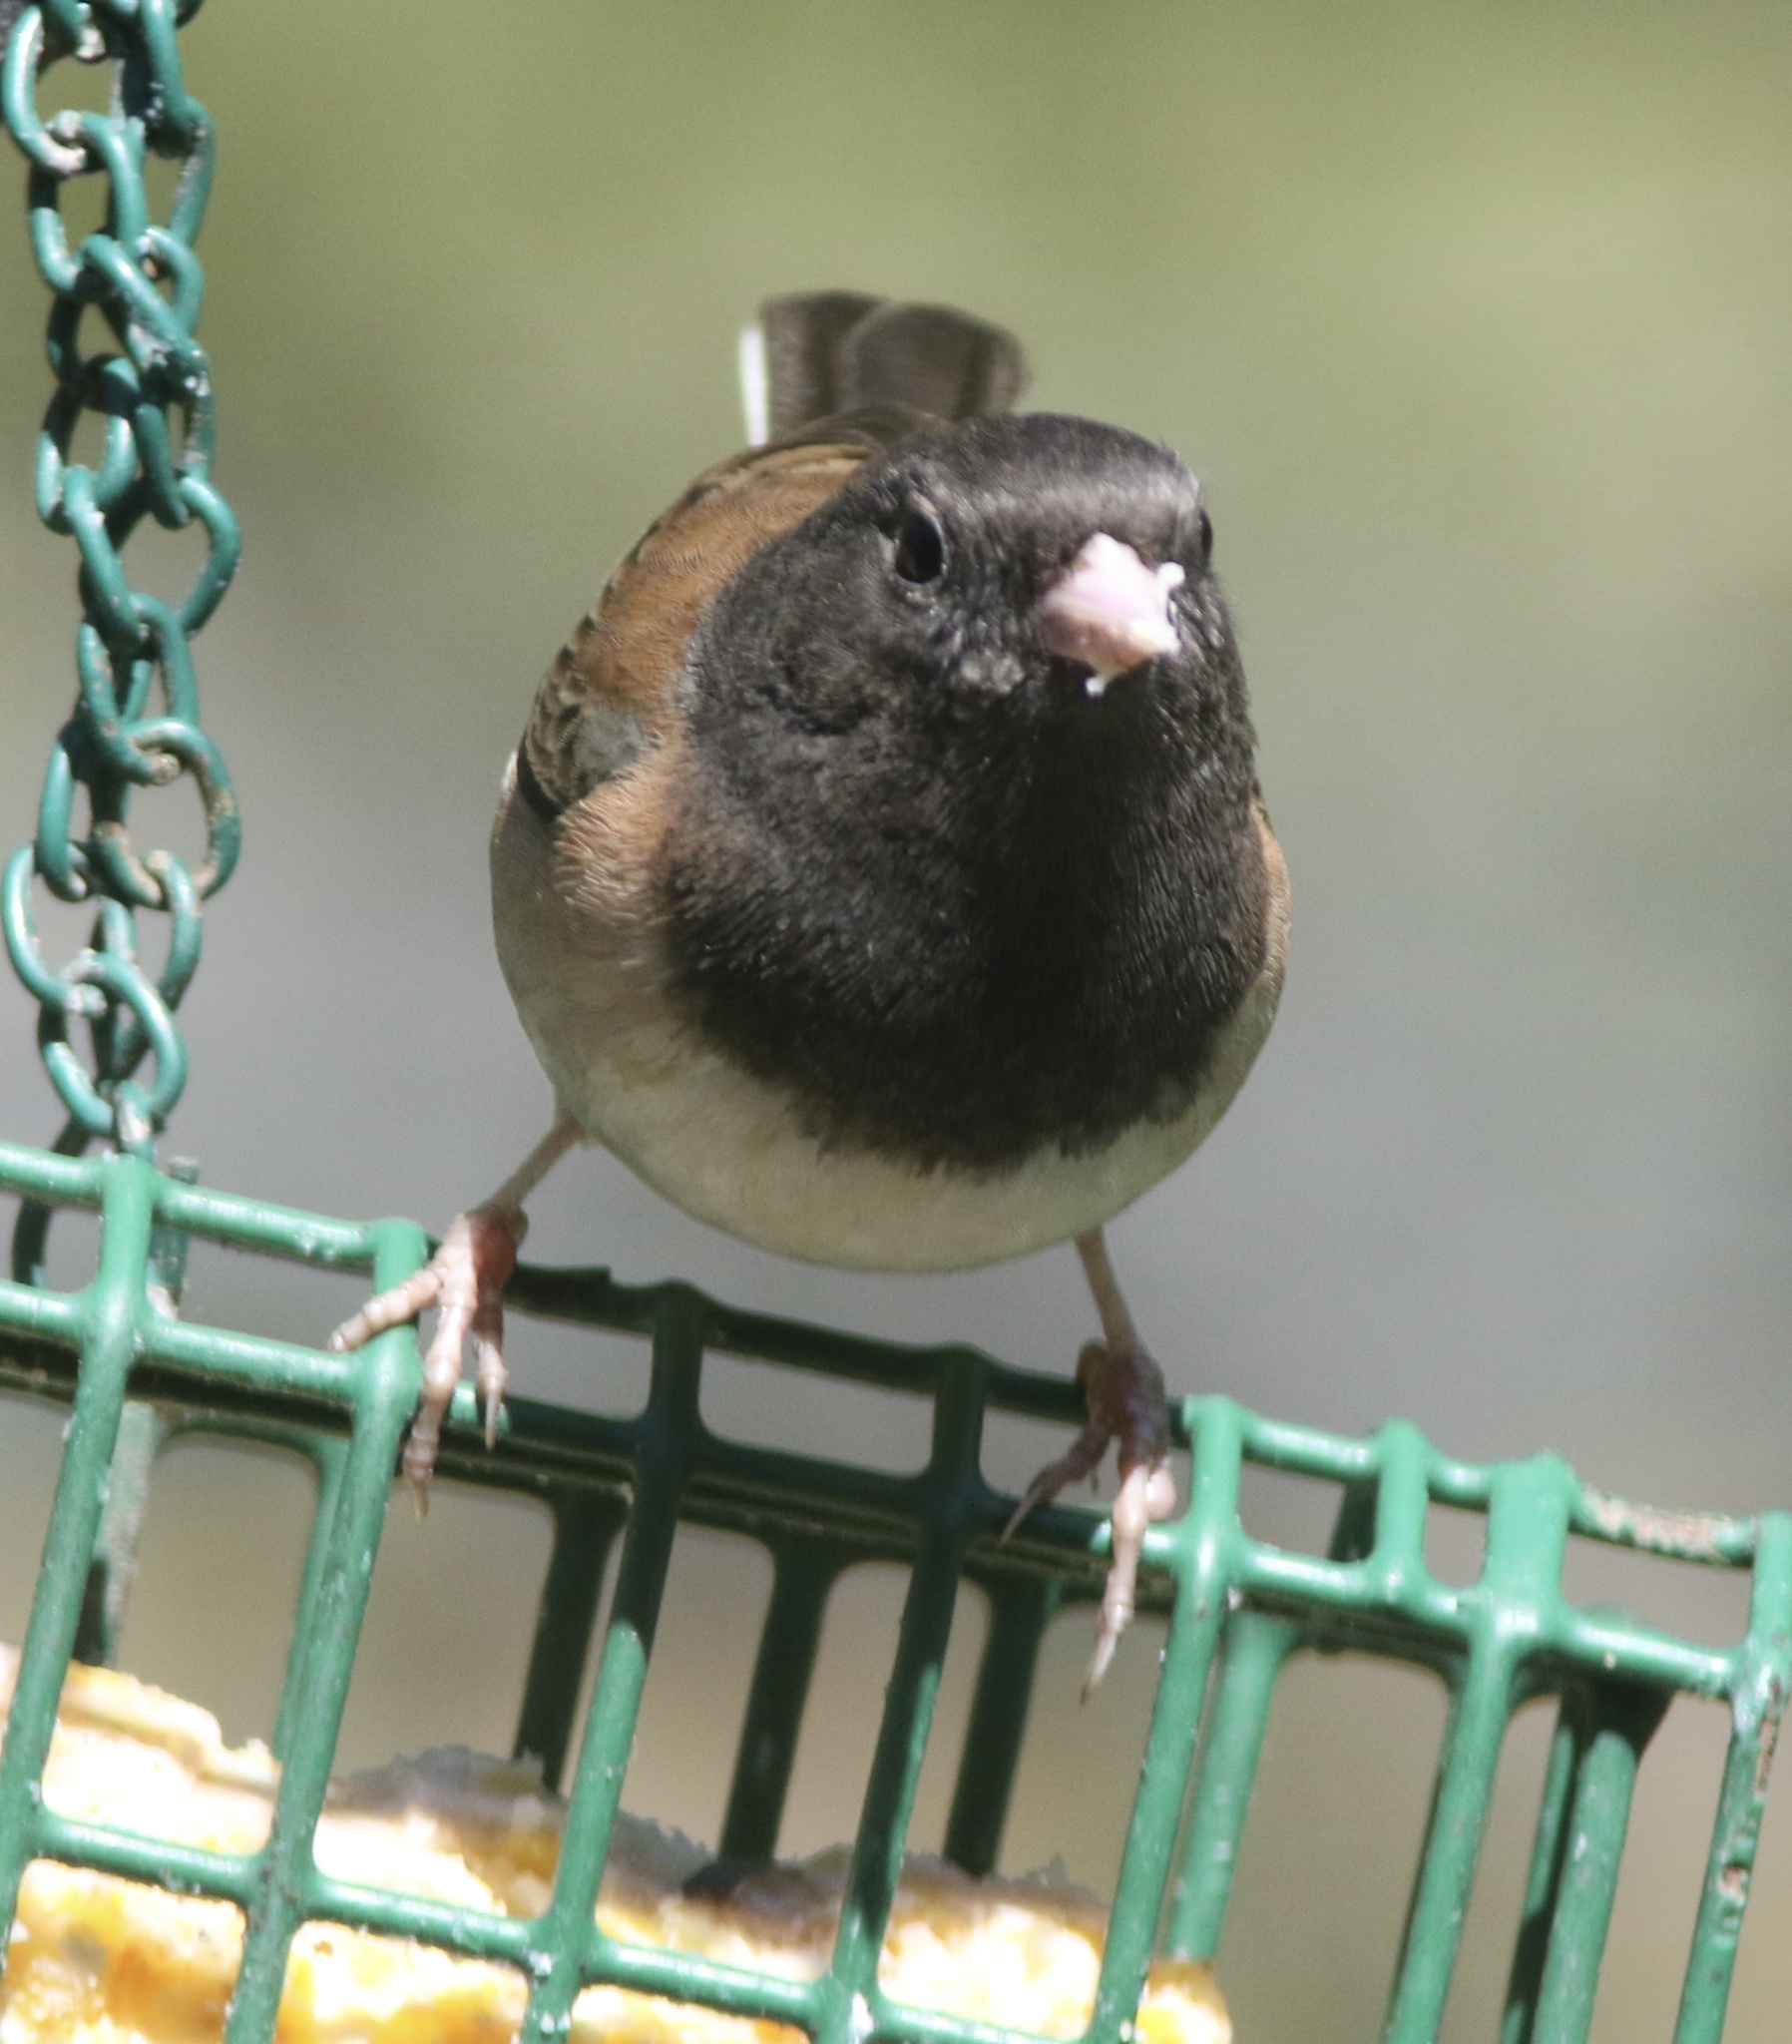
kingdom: Animalia
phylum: Chordata
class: Aves
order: Passeriformes
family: Passerellidae
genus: Junco
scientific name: Junco hyemalis
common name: Dark-eyed junco
